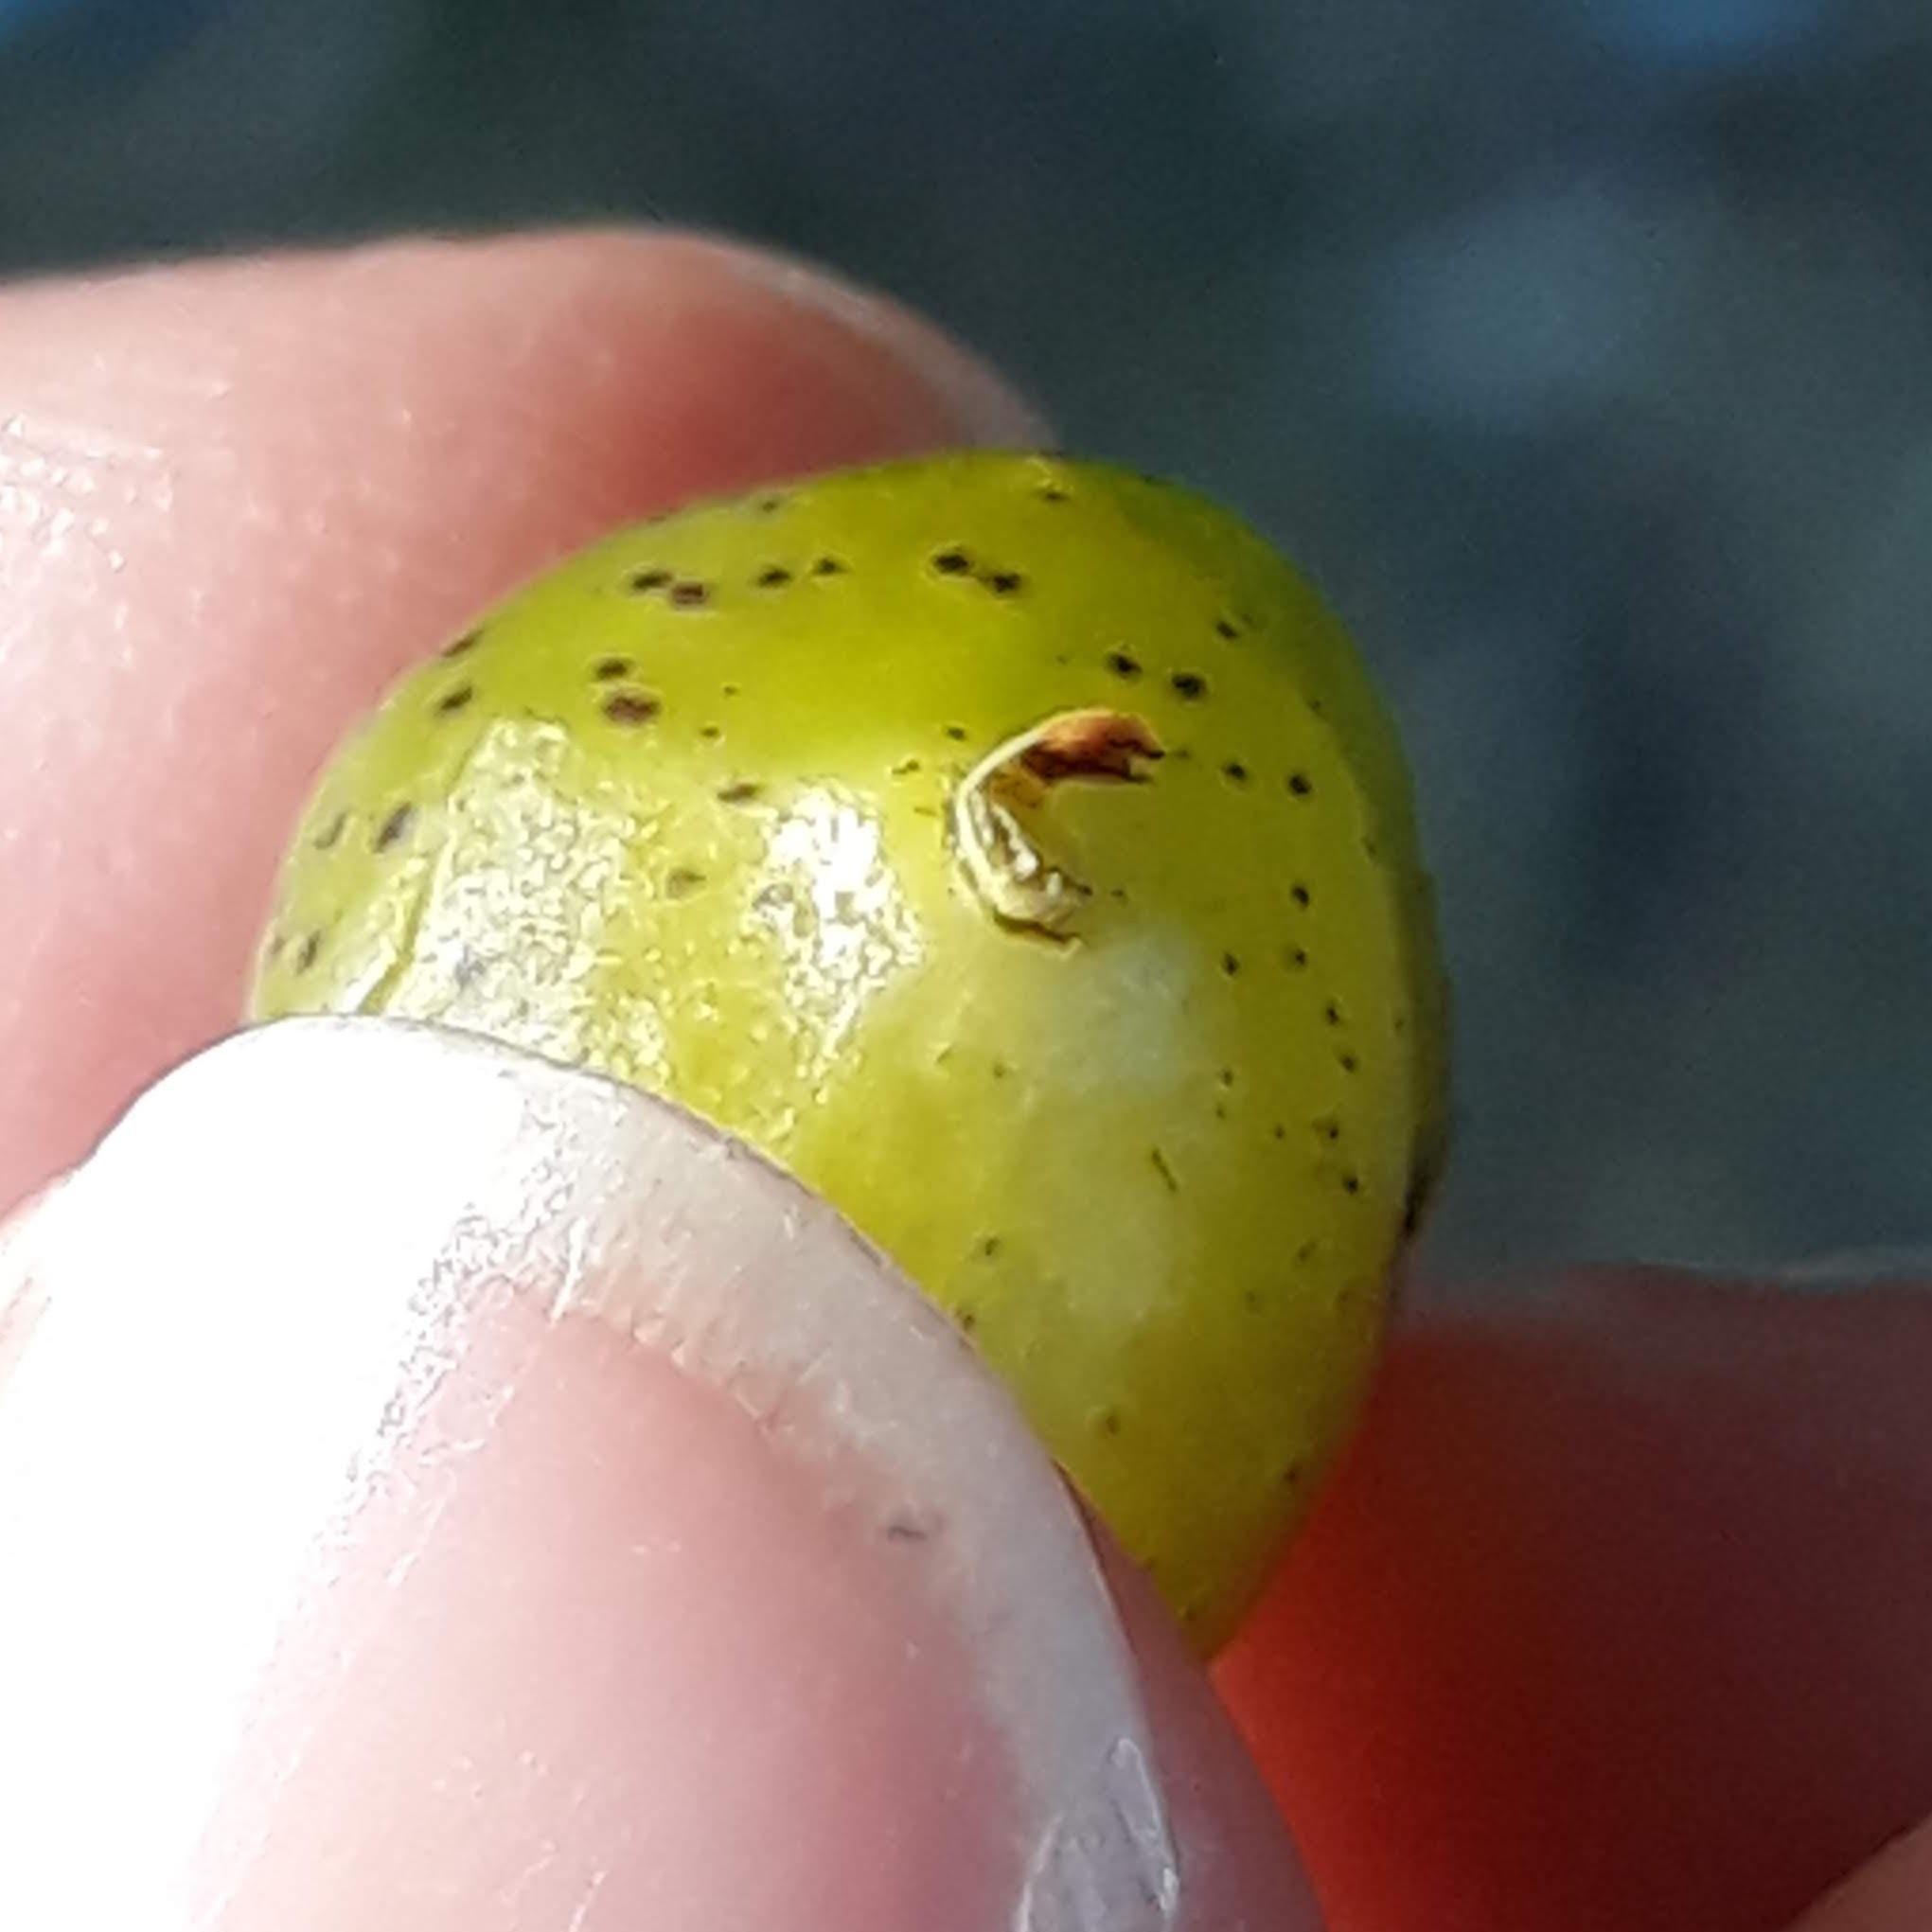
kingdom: Animalia
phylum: Arthropoda
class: Insecta
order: Hymenoptera
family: Cynipidae
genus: Amphibolips
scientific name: Amphibolips
